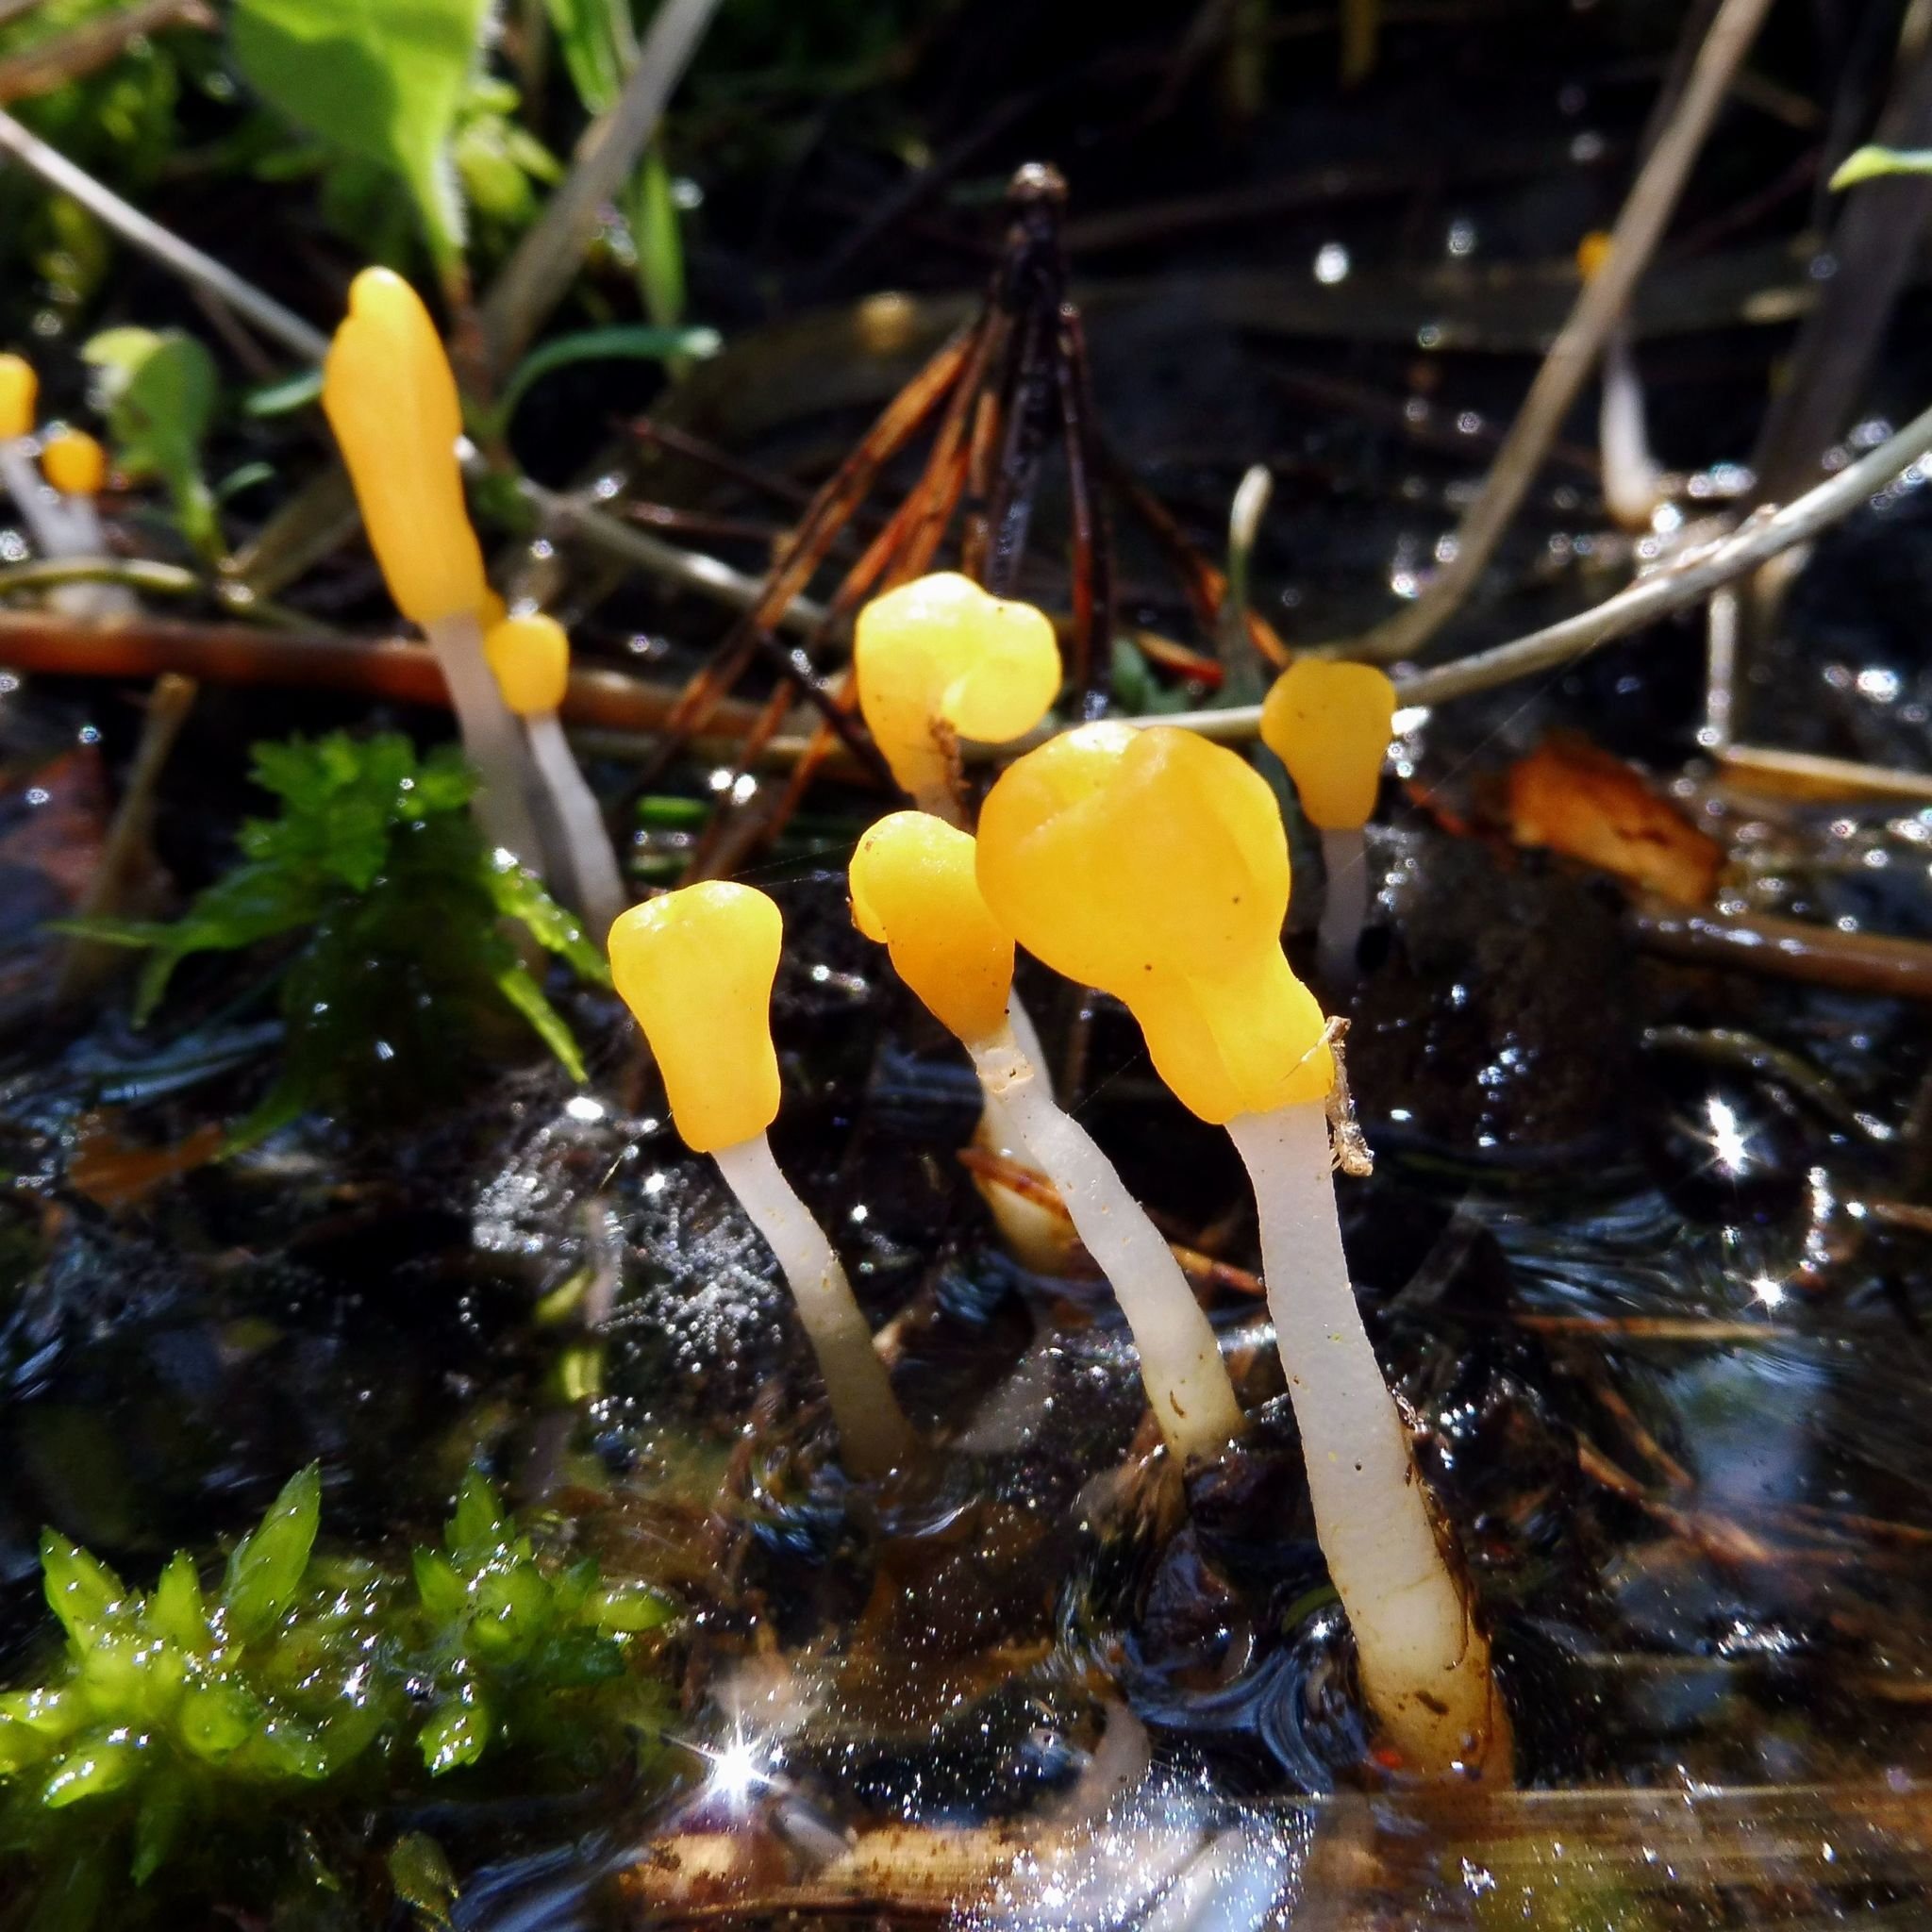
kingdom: Fungi
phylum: Ascomycota
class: Leotiomycetes
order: Helotiales
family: Cenangiaceae
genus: Mitrula
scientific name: Mitrula paludosa
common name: Bog beacon
